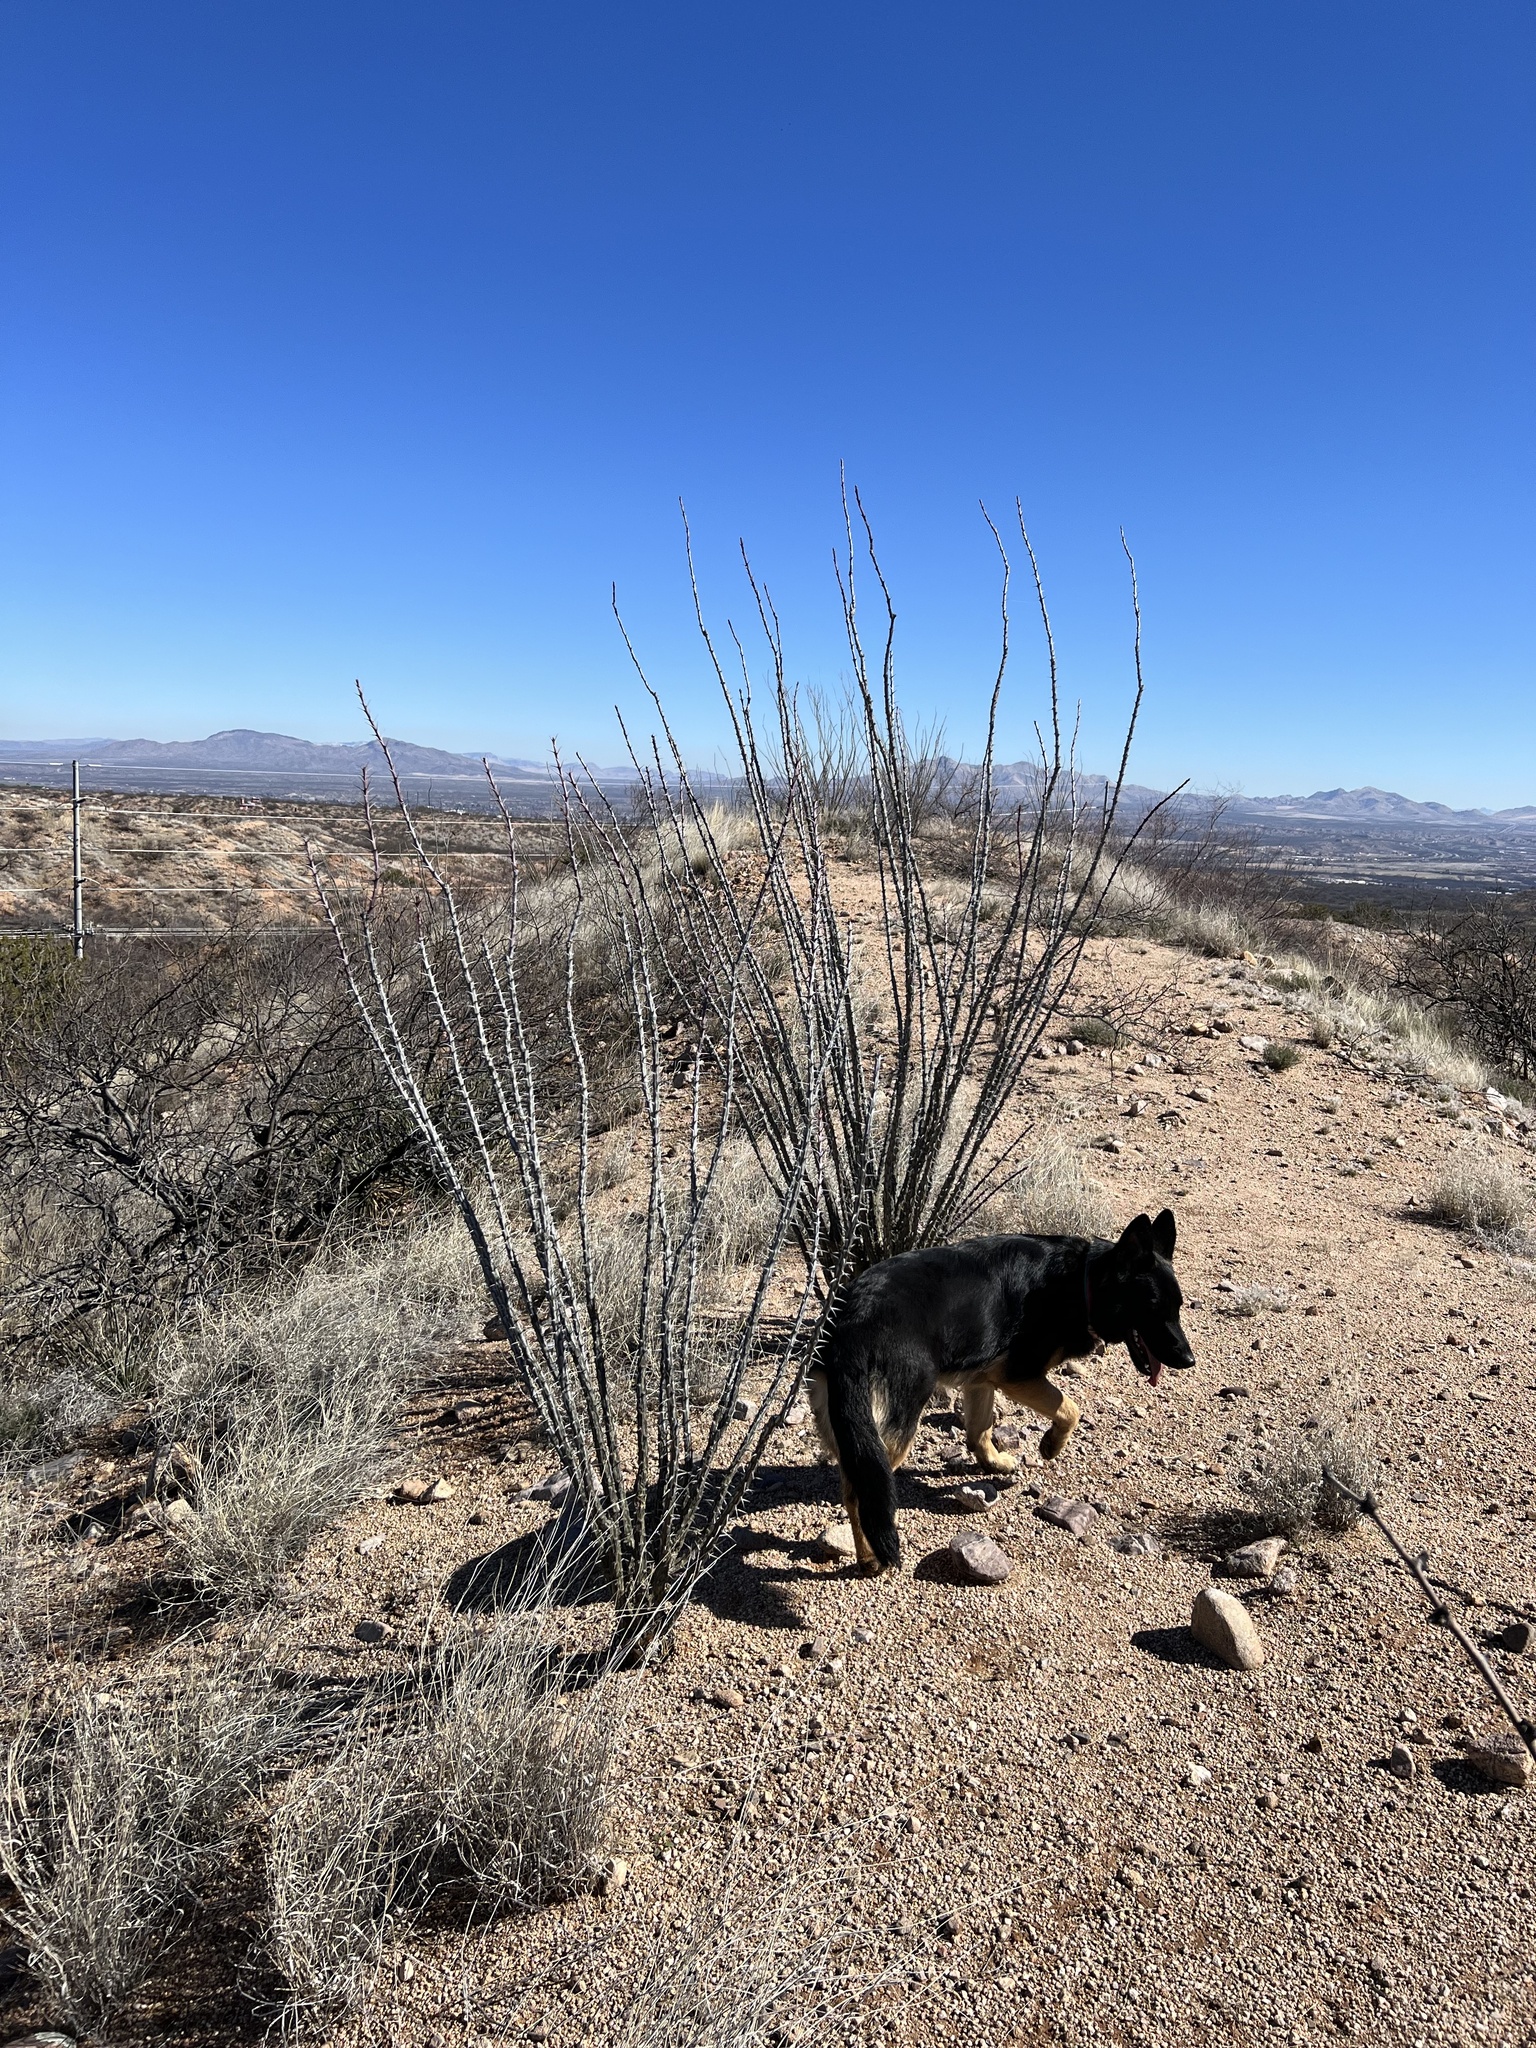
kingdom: Plantae
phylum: Tracheophyta
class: Magnoliopsida
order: Ericales
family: Fouquieriaceae
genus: Fouquieria
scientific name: Fouquieria splendens
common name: Vine-cactus
